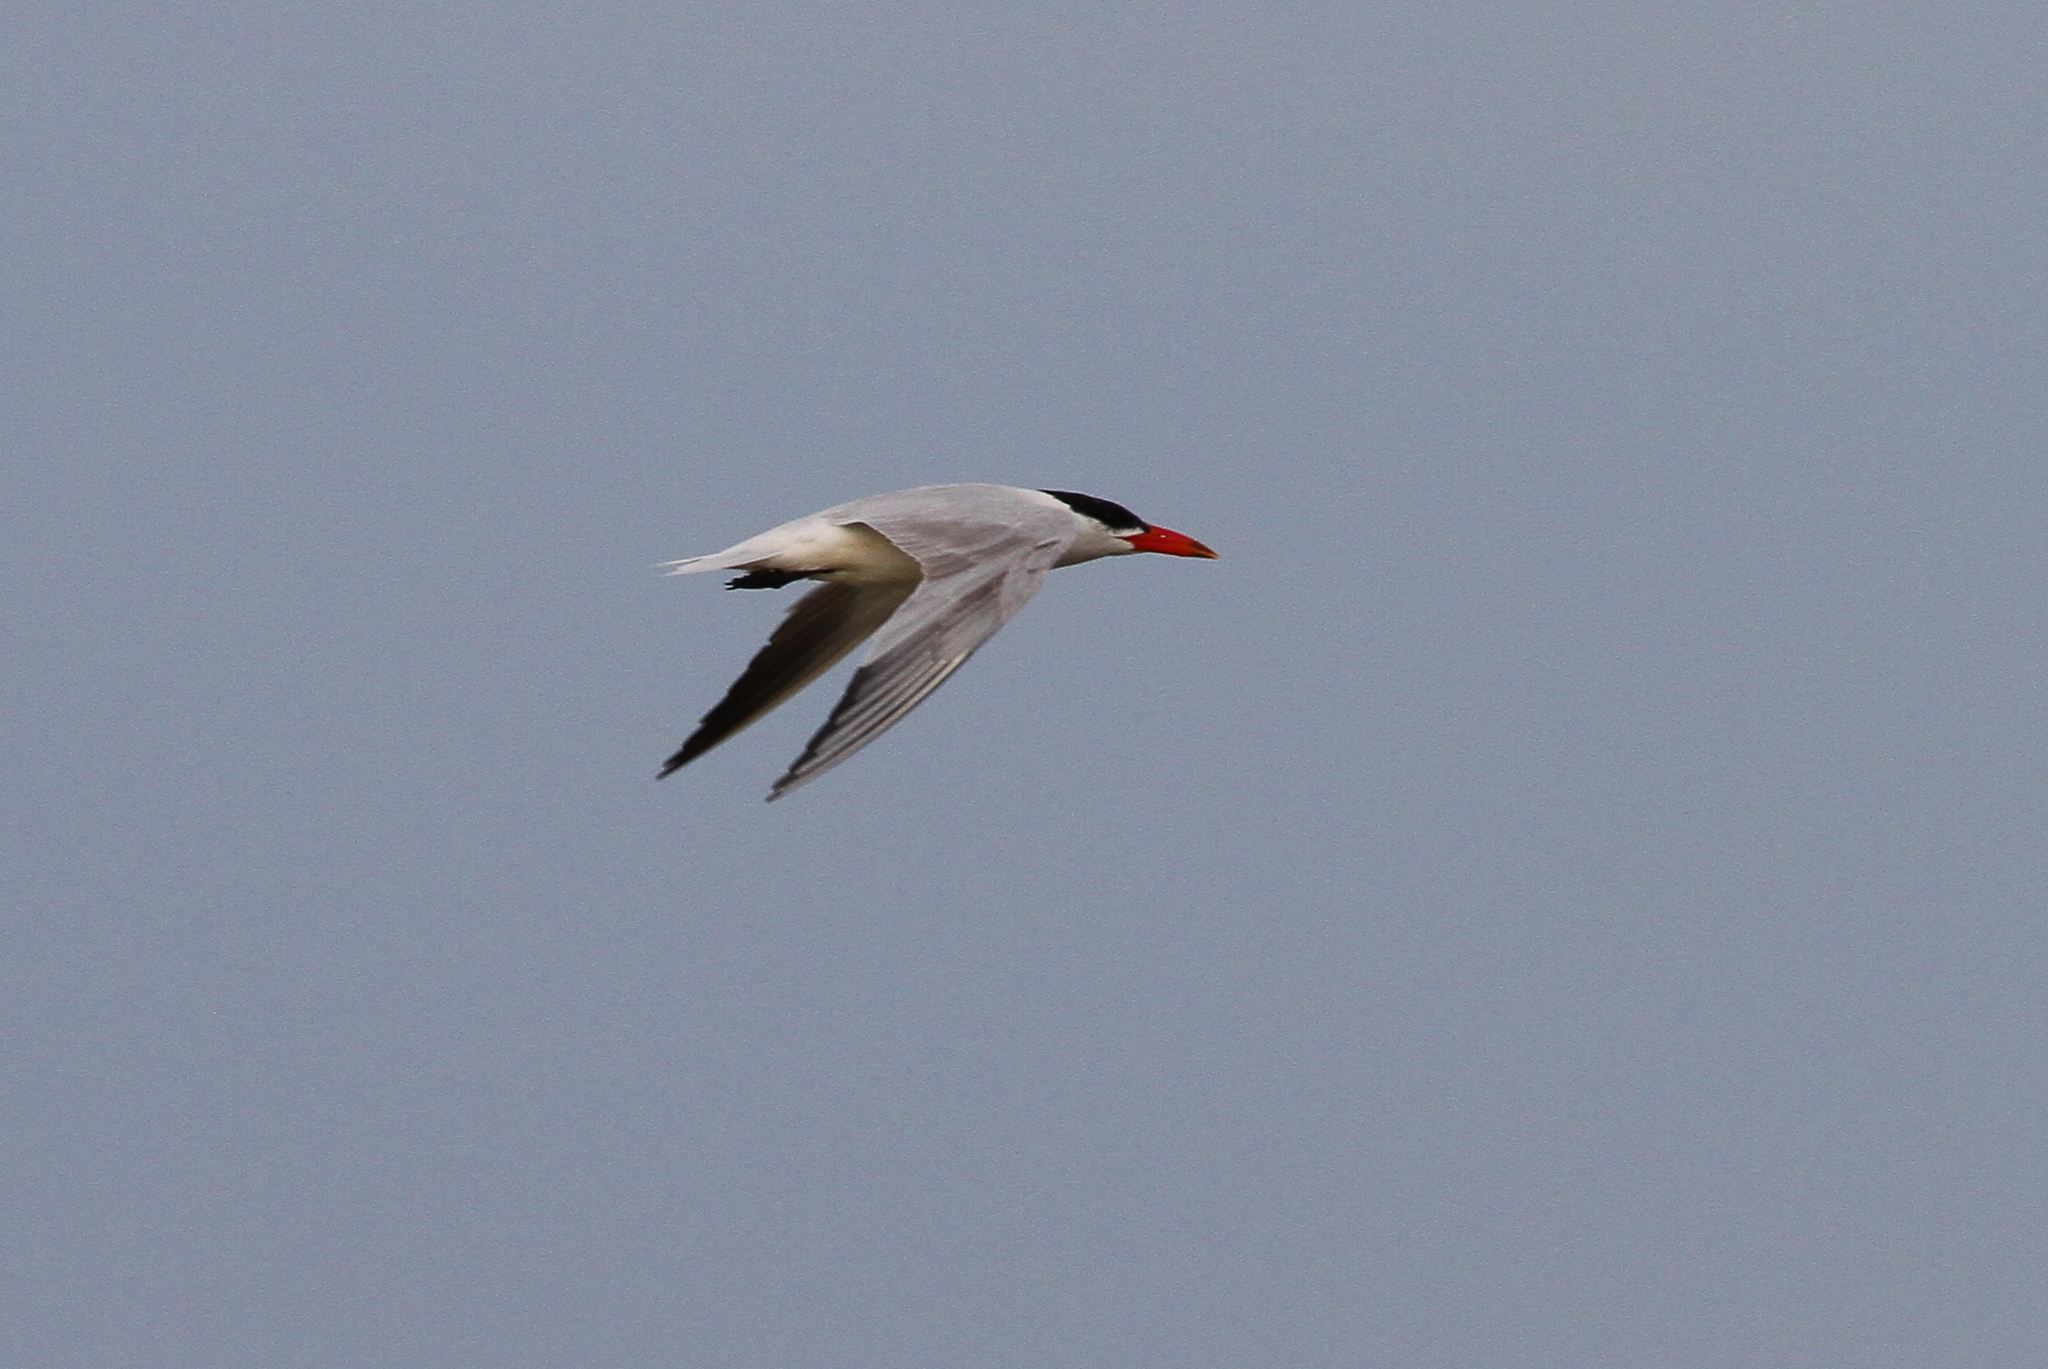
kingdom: Animalia
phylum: Chordata
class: Aves
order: Charadriiformes
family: Laridae
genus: Hydroprogne
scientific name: Hydroprogne caspia
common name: Caspian tern
